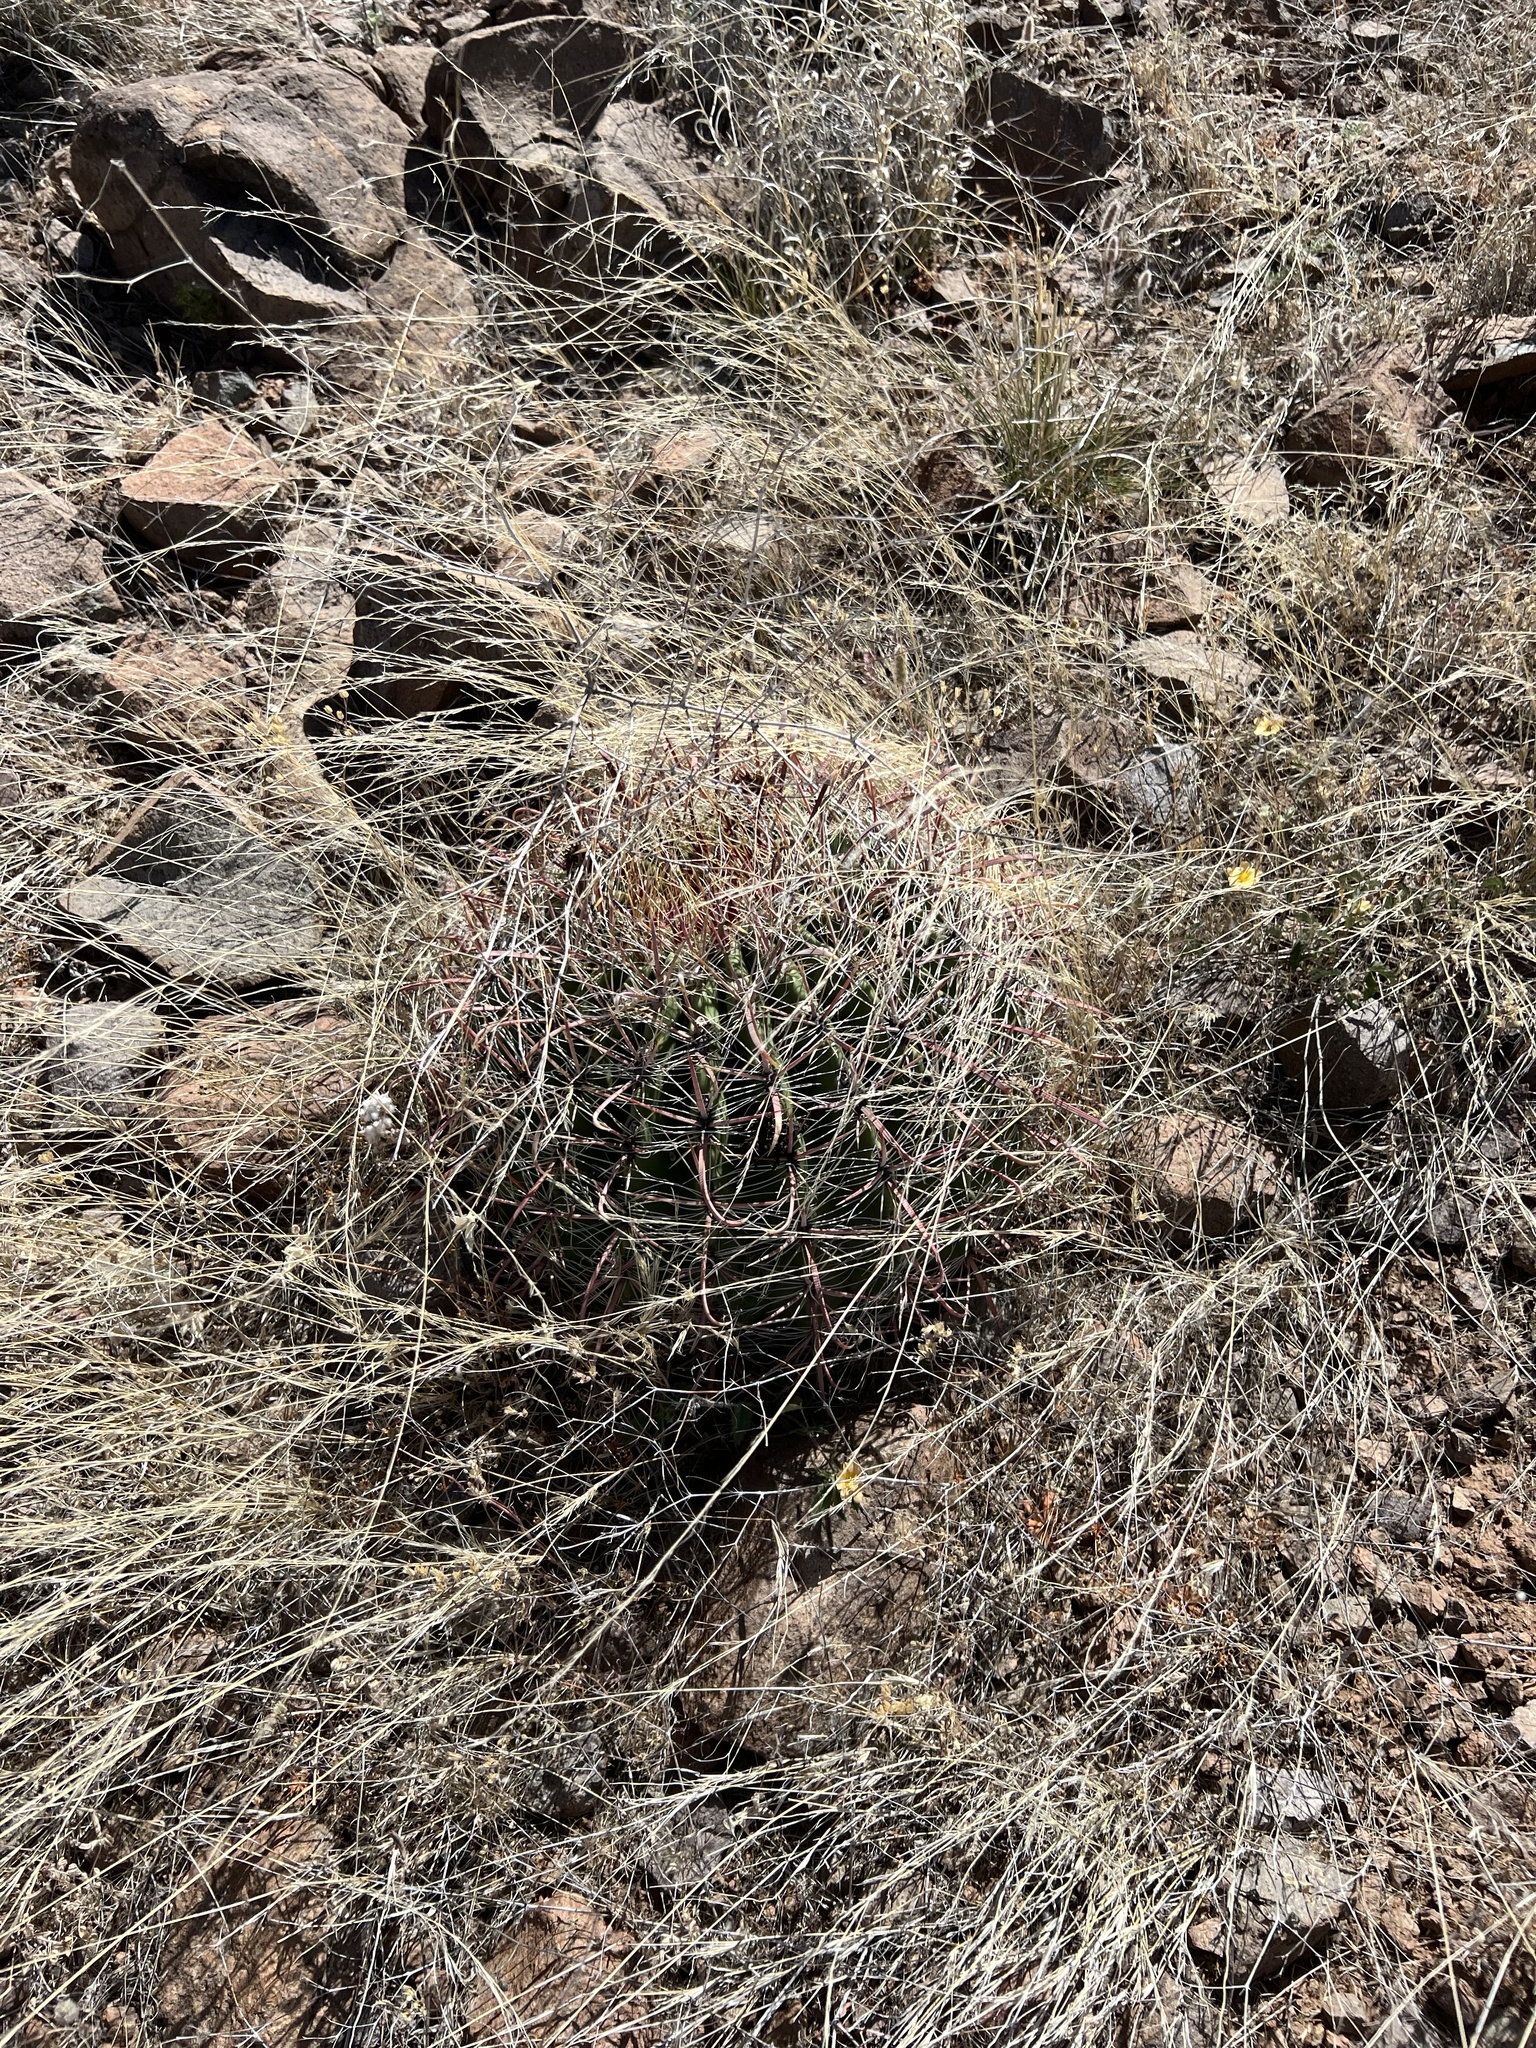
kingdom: Plantae
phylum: Tracheophyta
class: Magnoliopsida
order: Caryophyllales
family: Cactaceae
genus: Ferocactus
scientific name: Ferocactus wislizeni
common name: Candy barrel cactus
